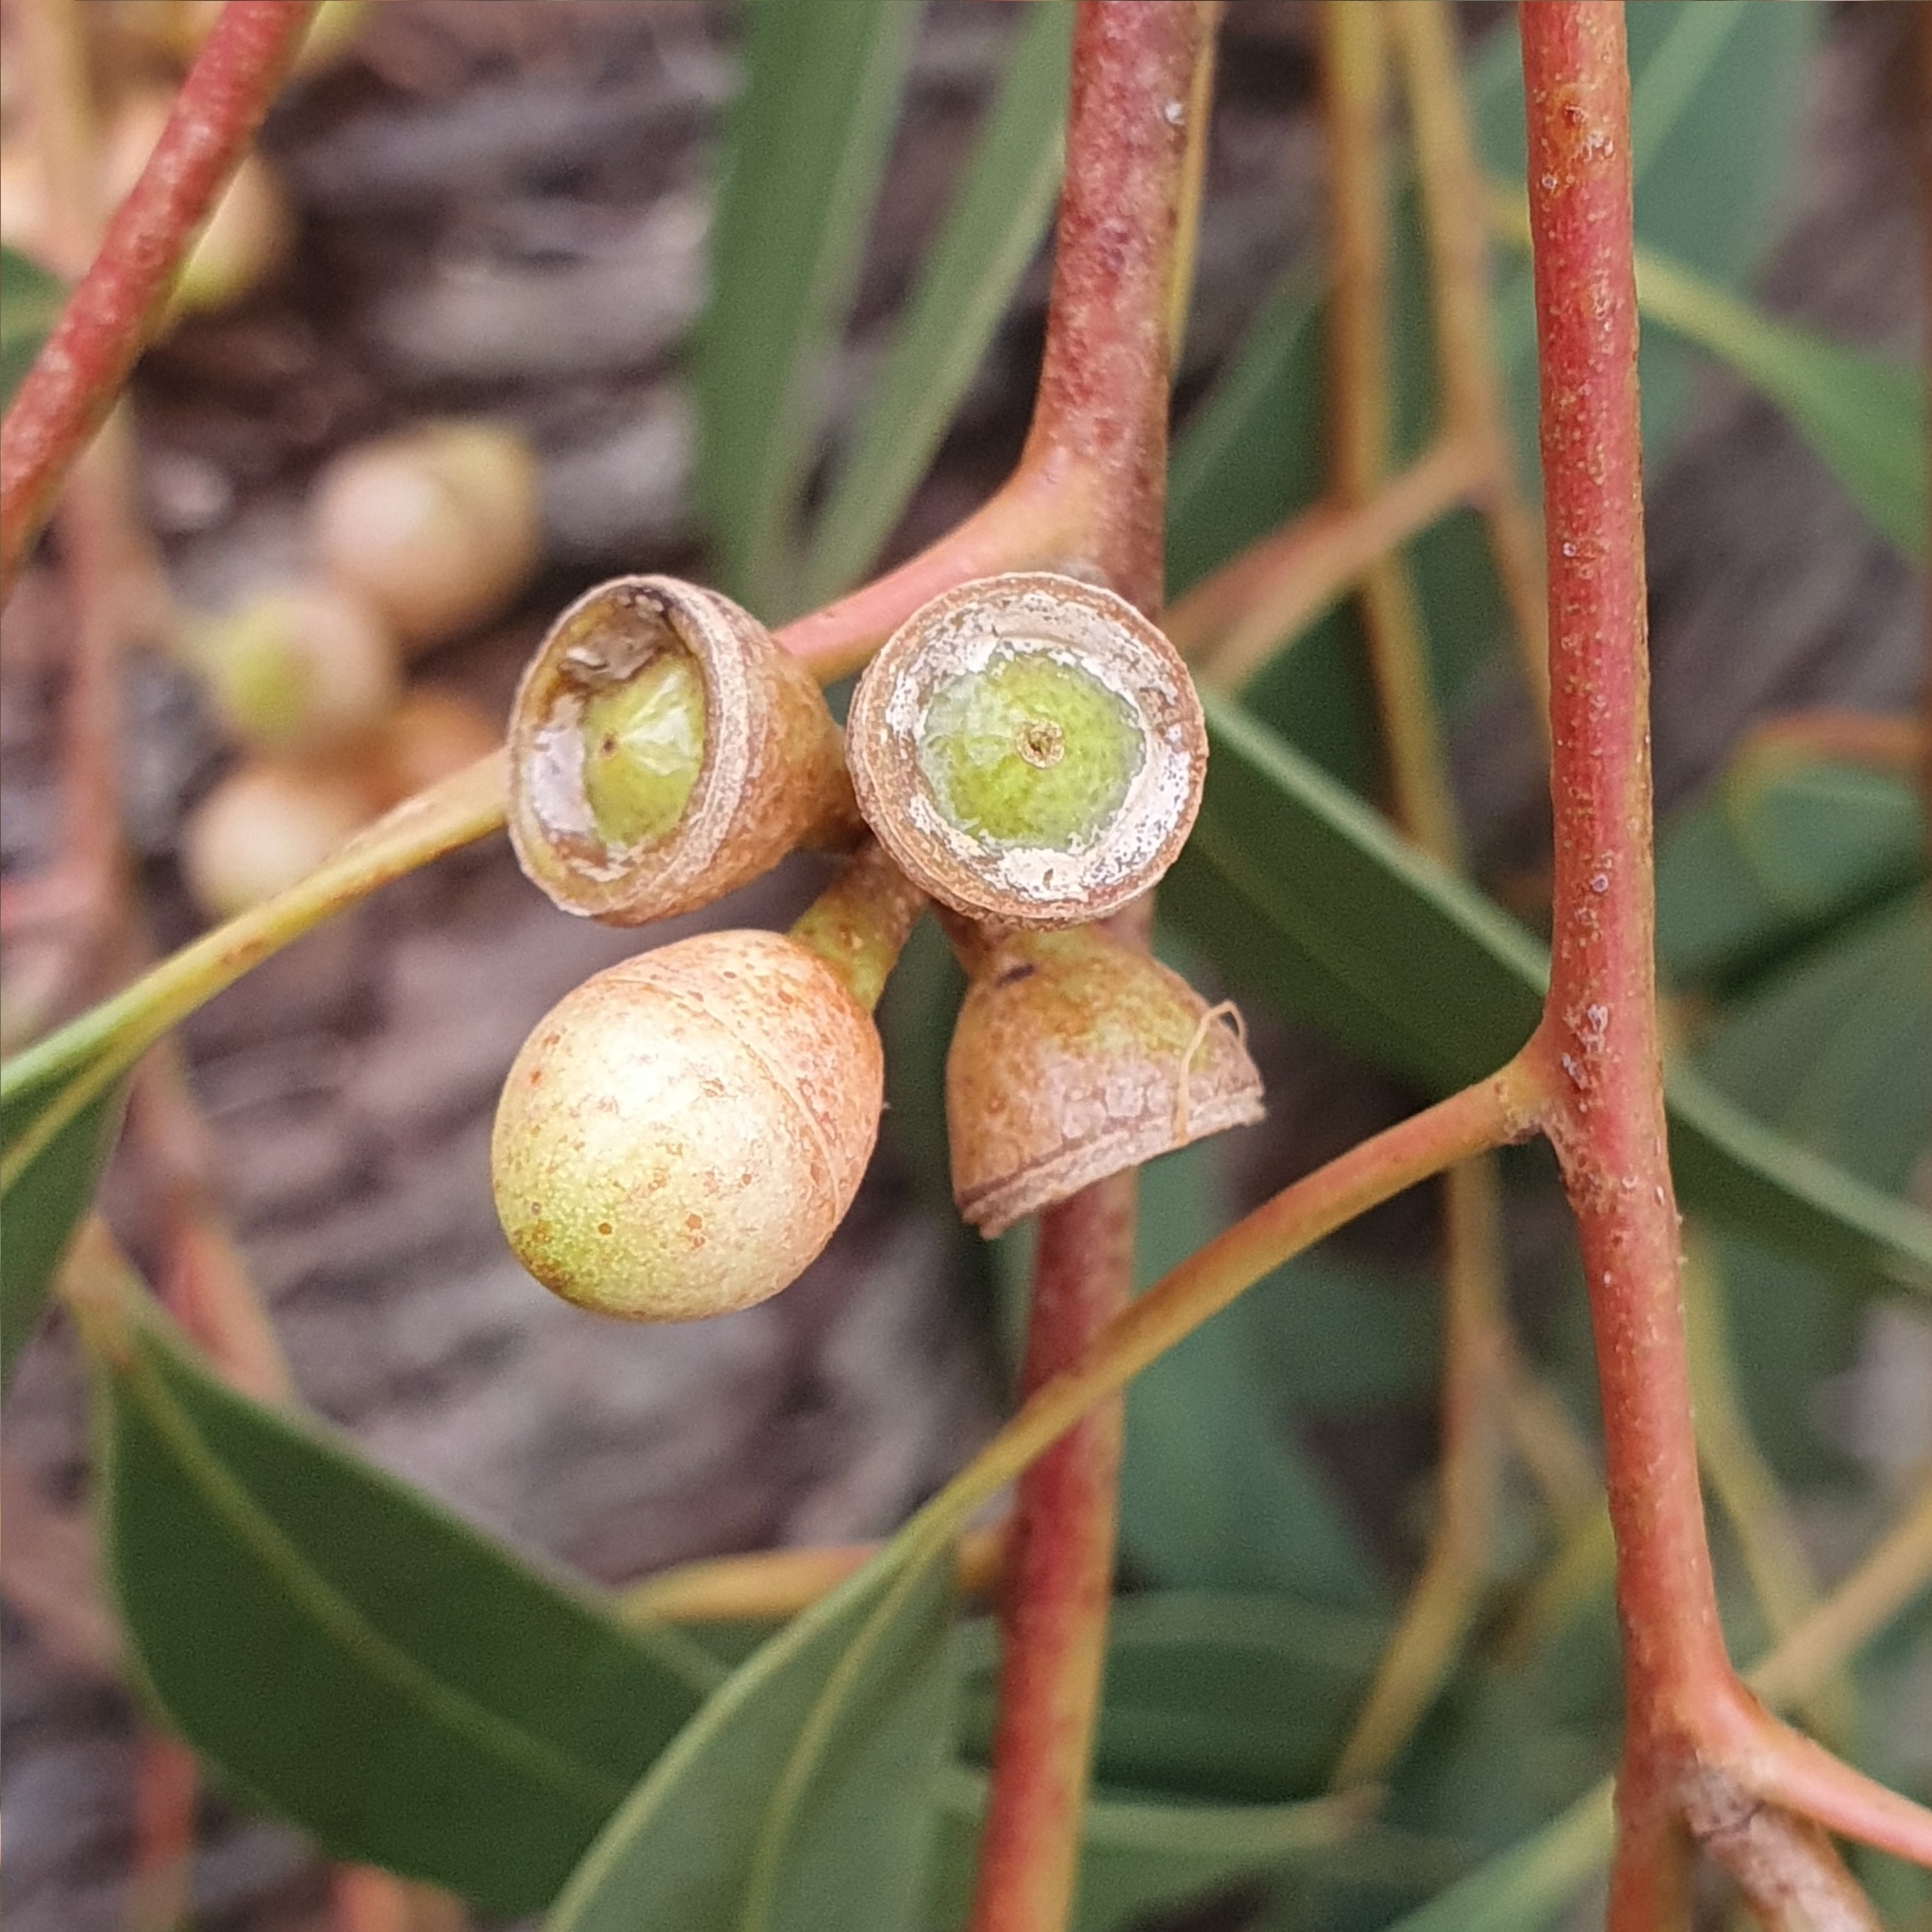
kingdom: Plantae
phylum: Tracheophyta
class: Magnoliopsida
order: Myrtales
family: Myrtaceae
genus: Eucalyptus
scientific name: Eucalyptus punctata
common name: Gray gum
